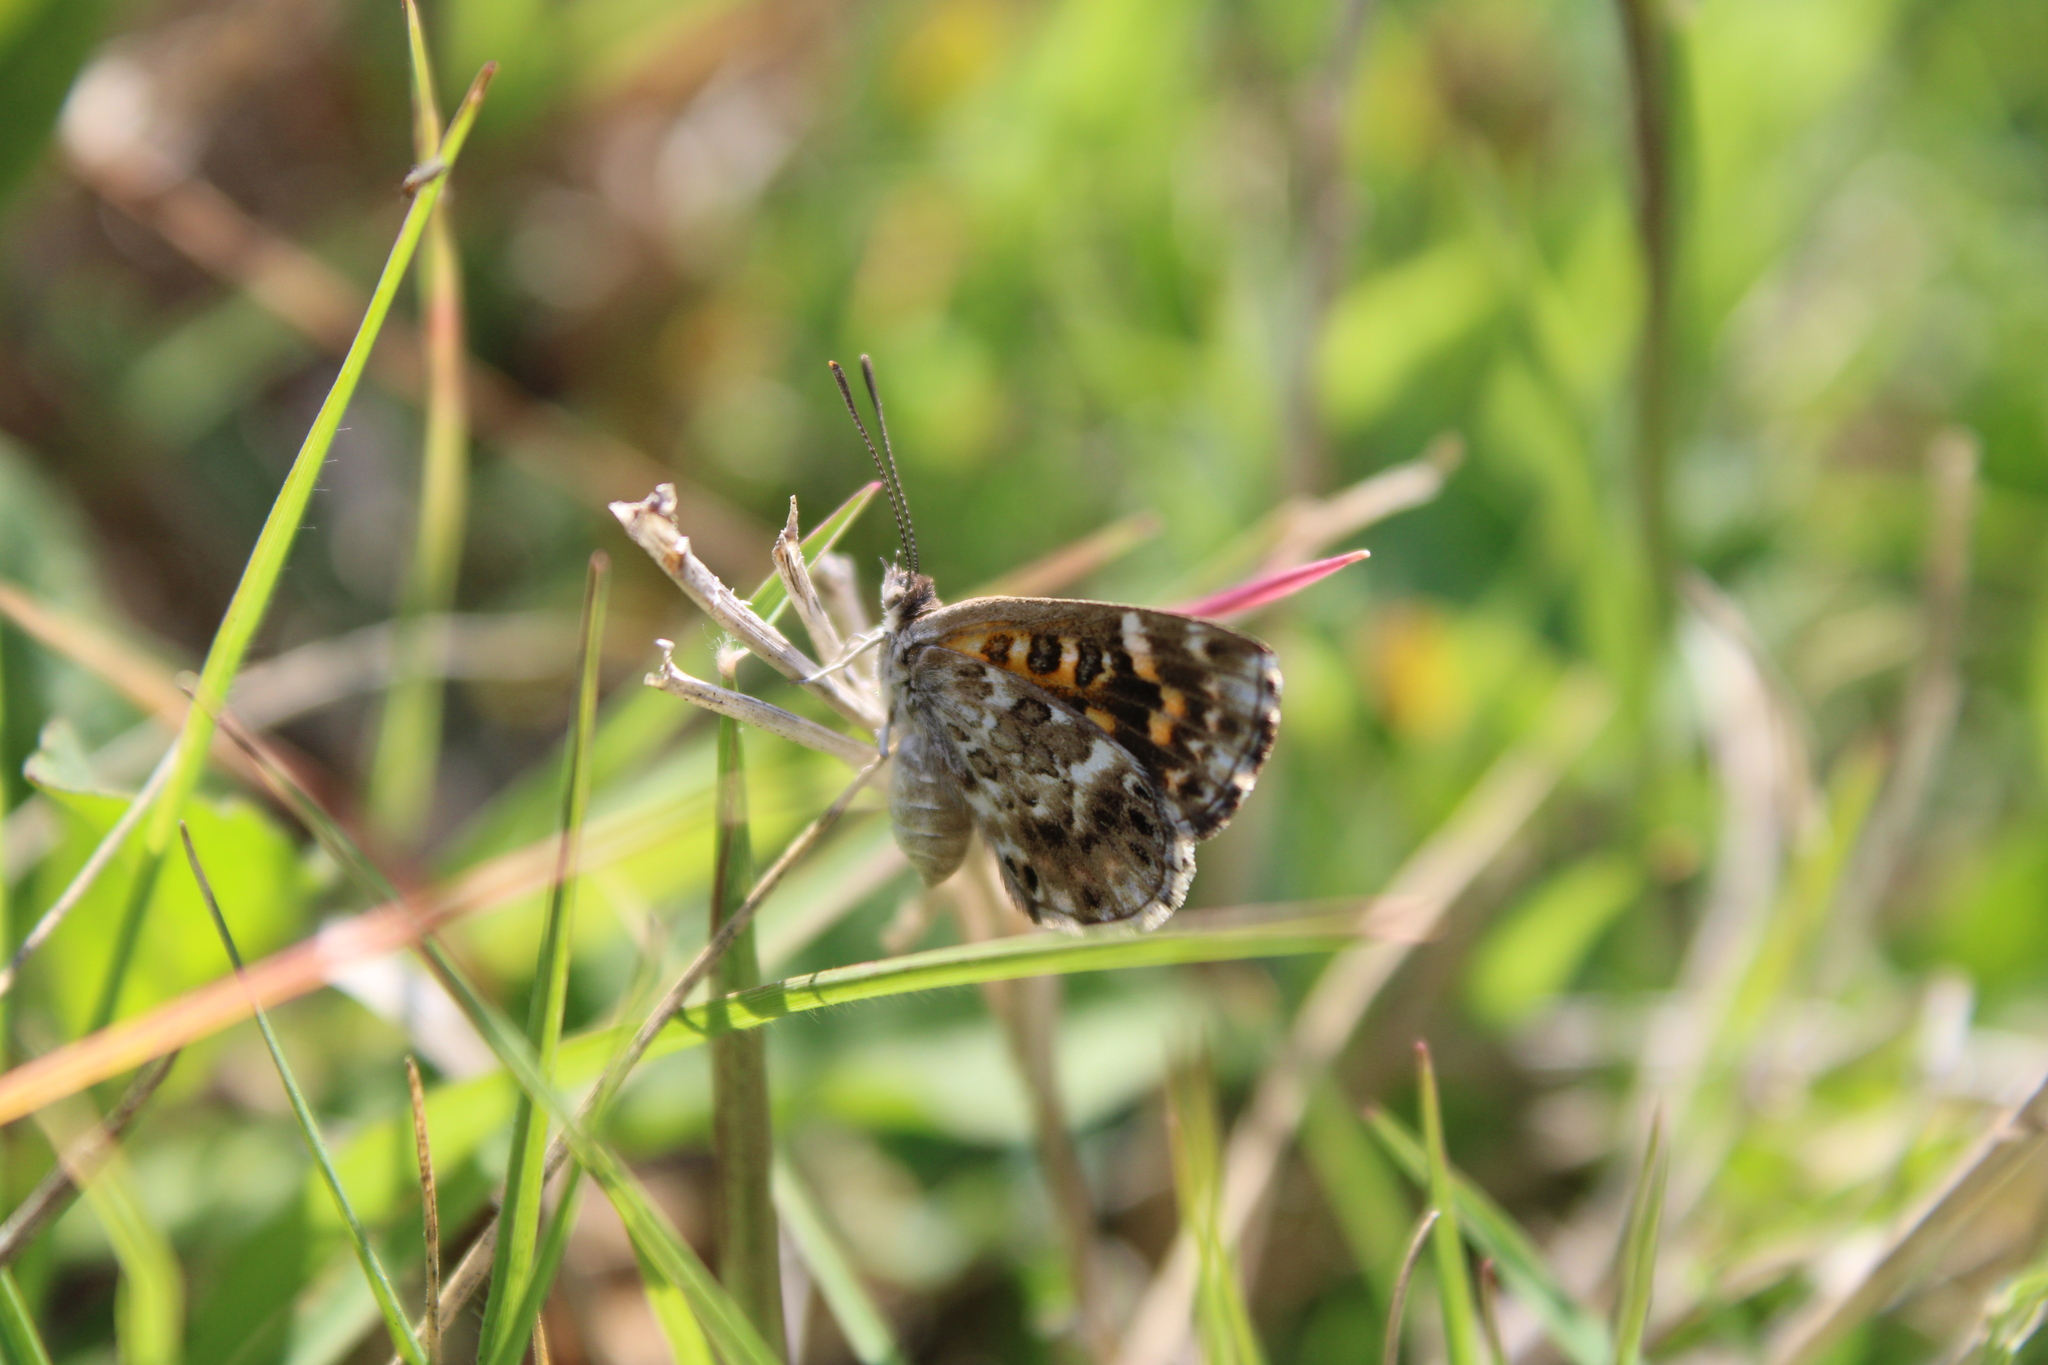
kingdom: Animalia
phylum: Arthropoda
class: Insecta
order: Lepidoptera
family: Lycaenidae
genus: Aricoris
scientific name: Aricoris signata
